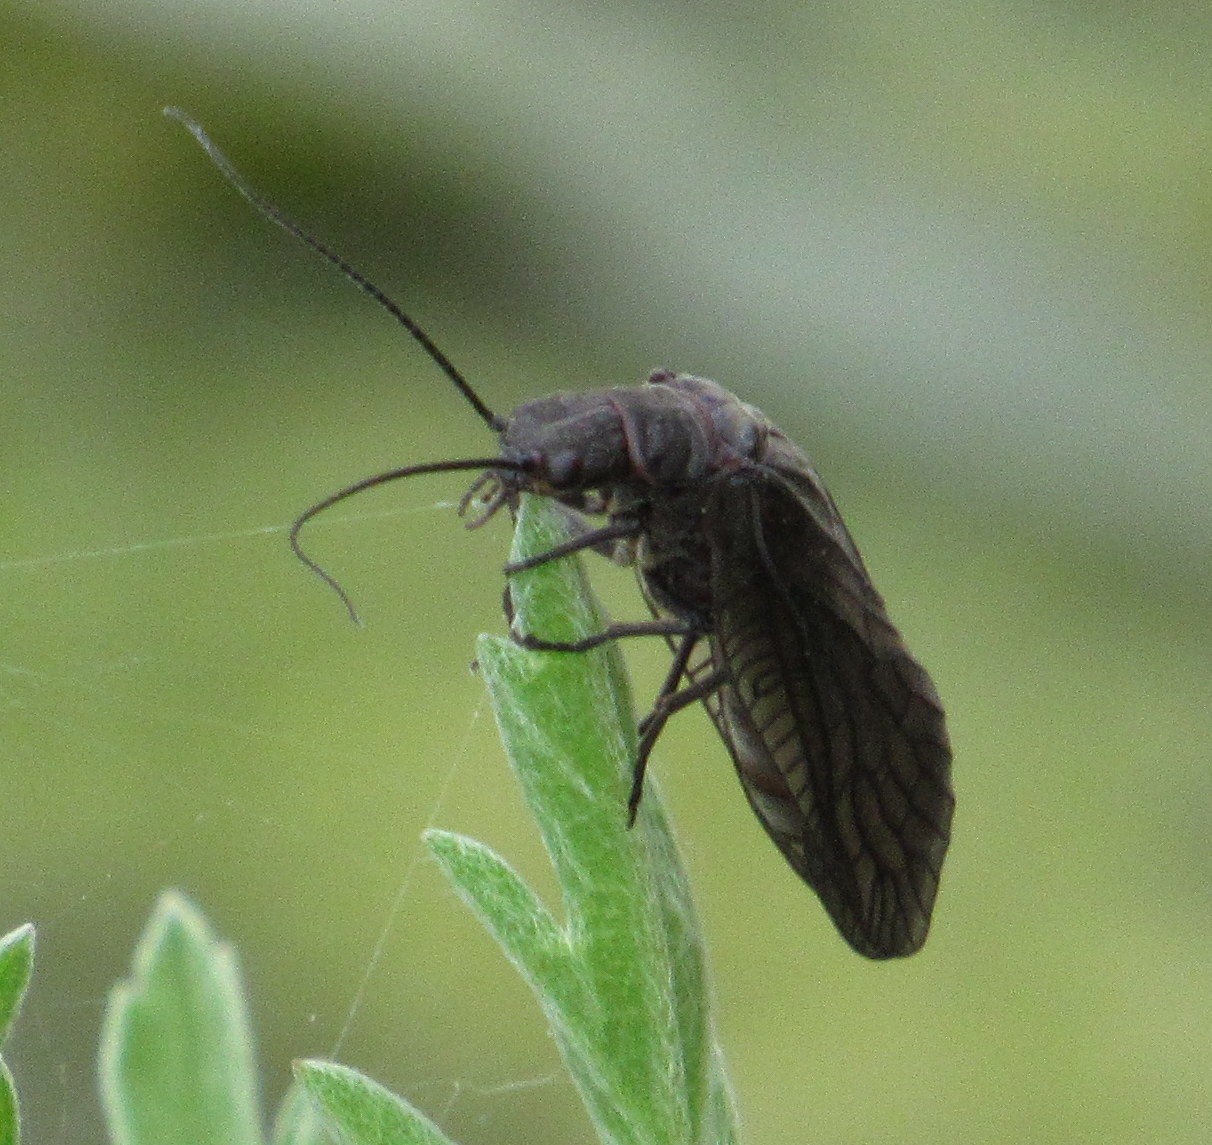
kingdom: Animalia
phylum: Arthropoda
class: Insecta
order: Megaloptera
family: Sialidae
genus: Sialis
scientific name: Sialis
